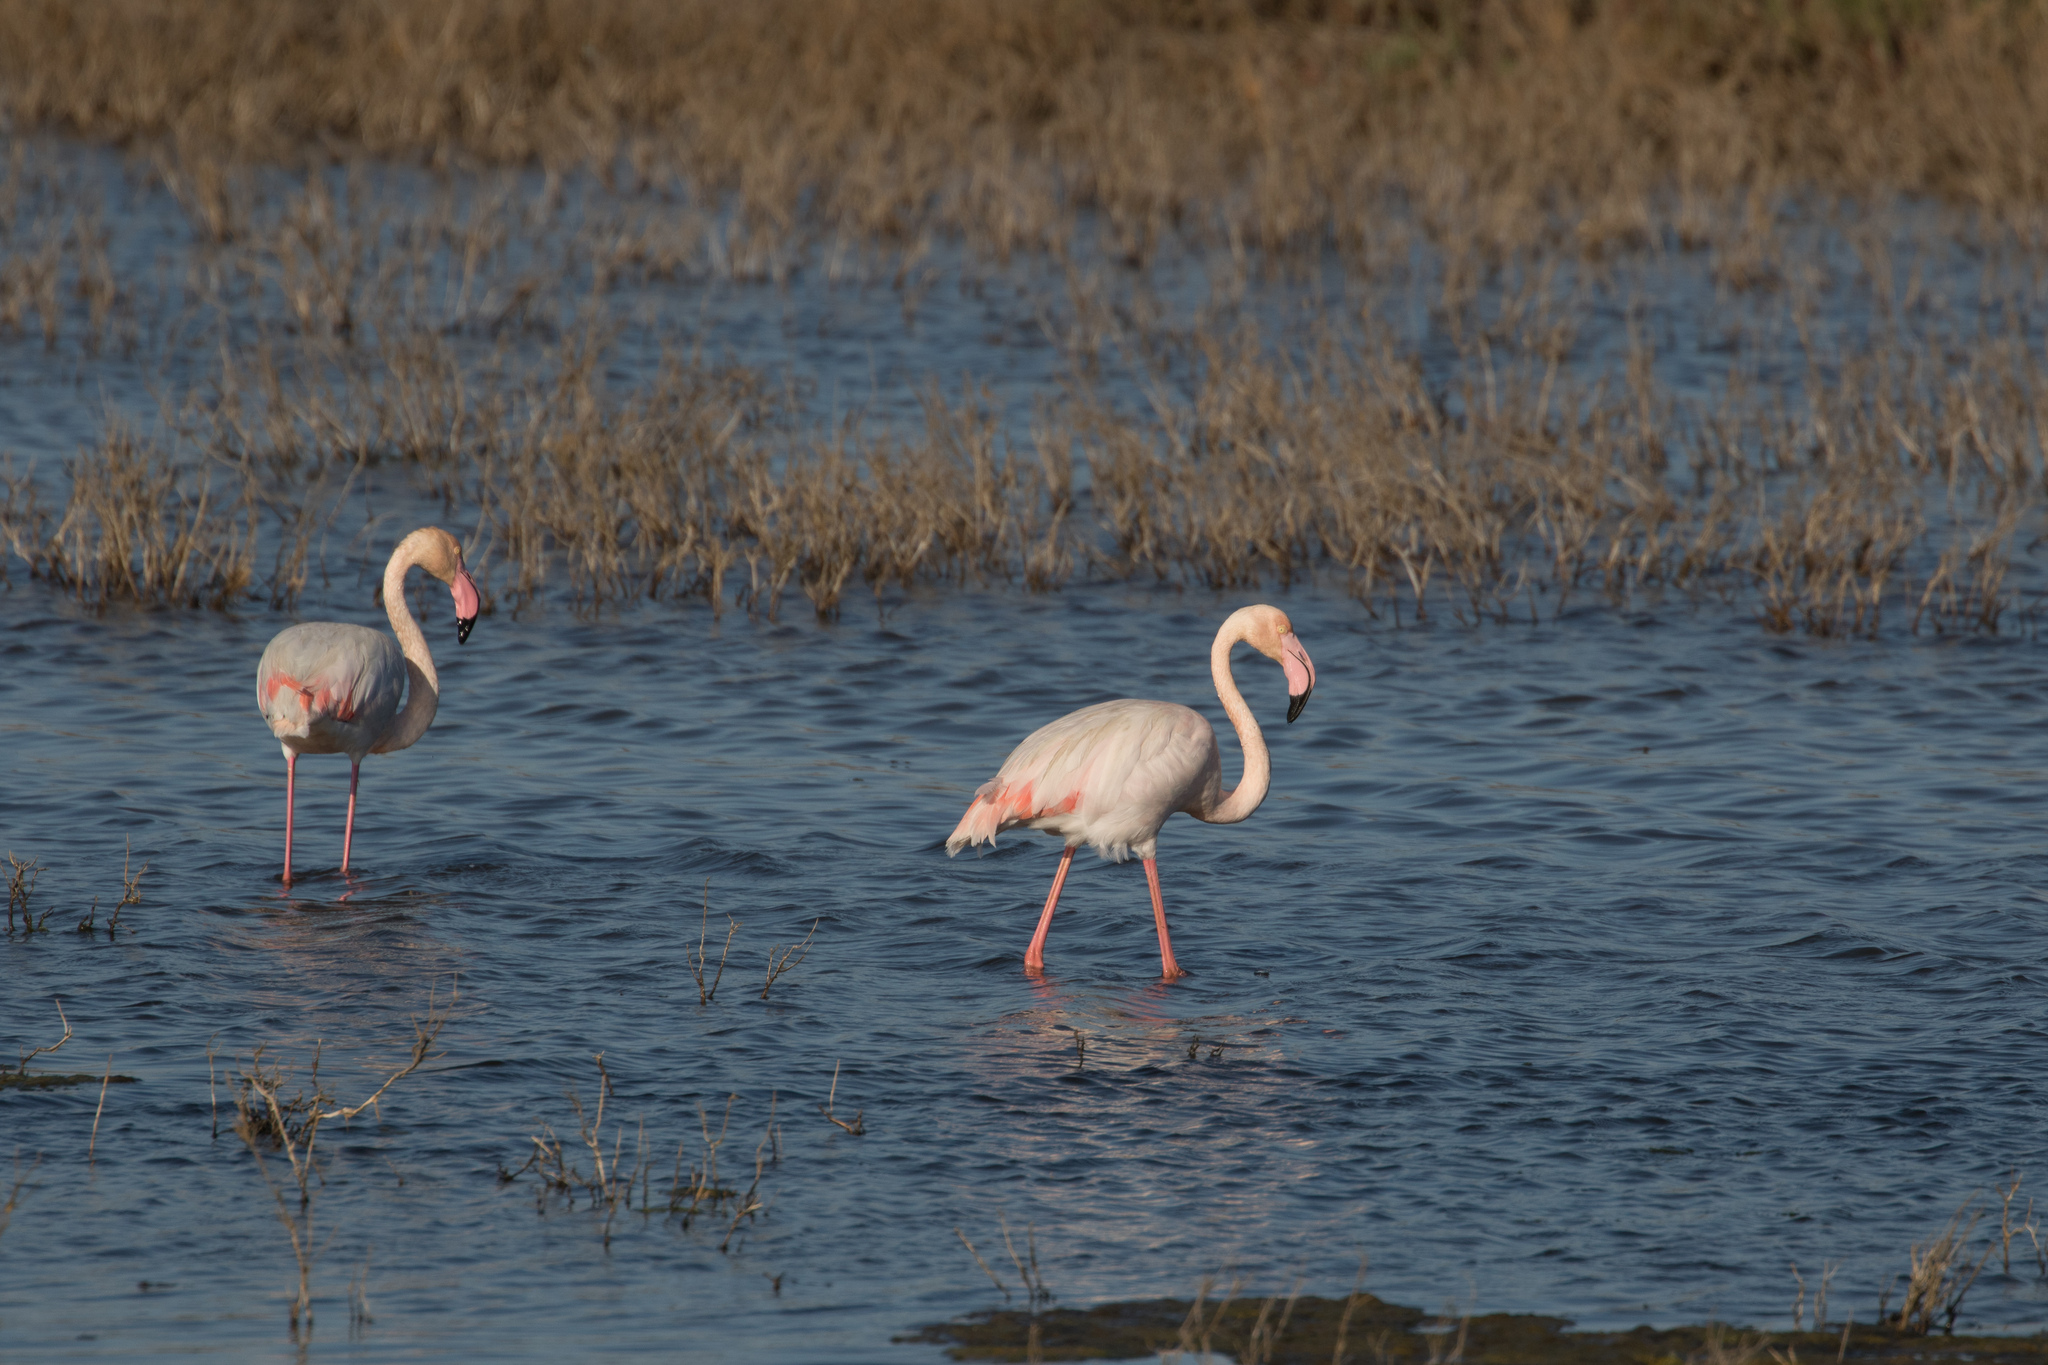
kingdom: Animalia
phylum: Chordata
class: Aves
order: Phoenicopteriformes
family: Phoenicopteridae
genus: Phoenicopterus
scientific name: Phoenicopterus roseus
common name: Greater flamingo
